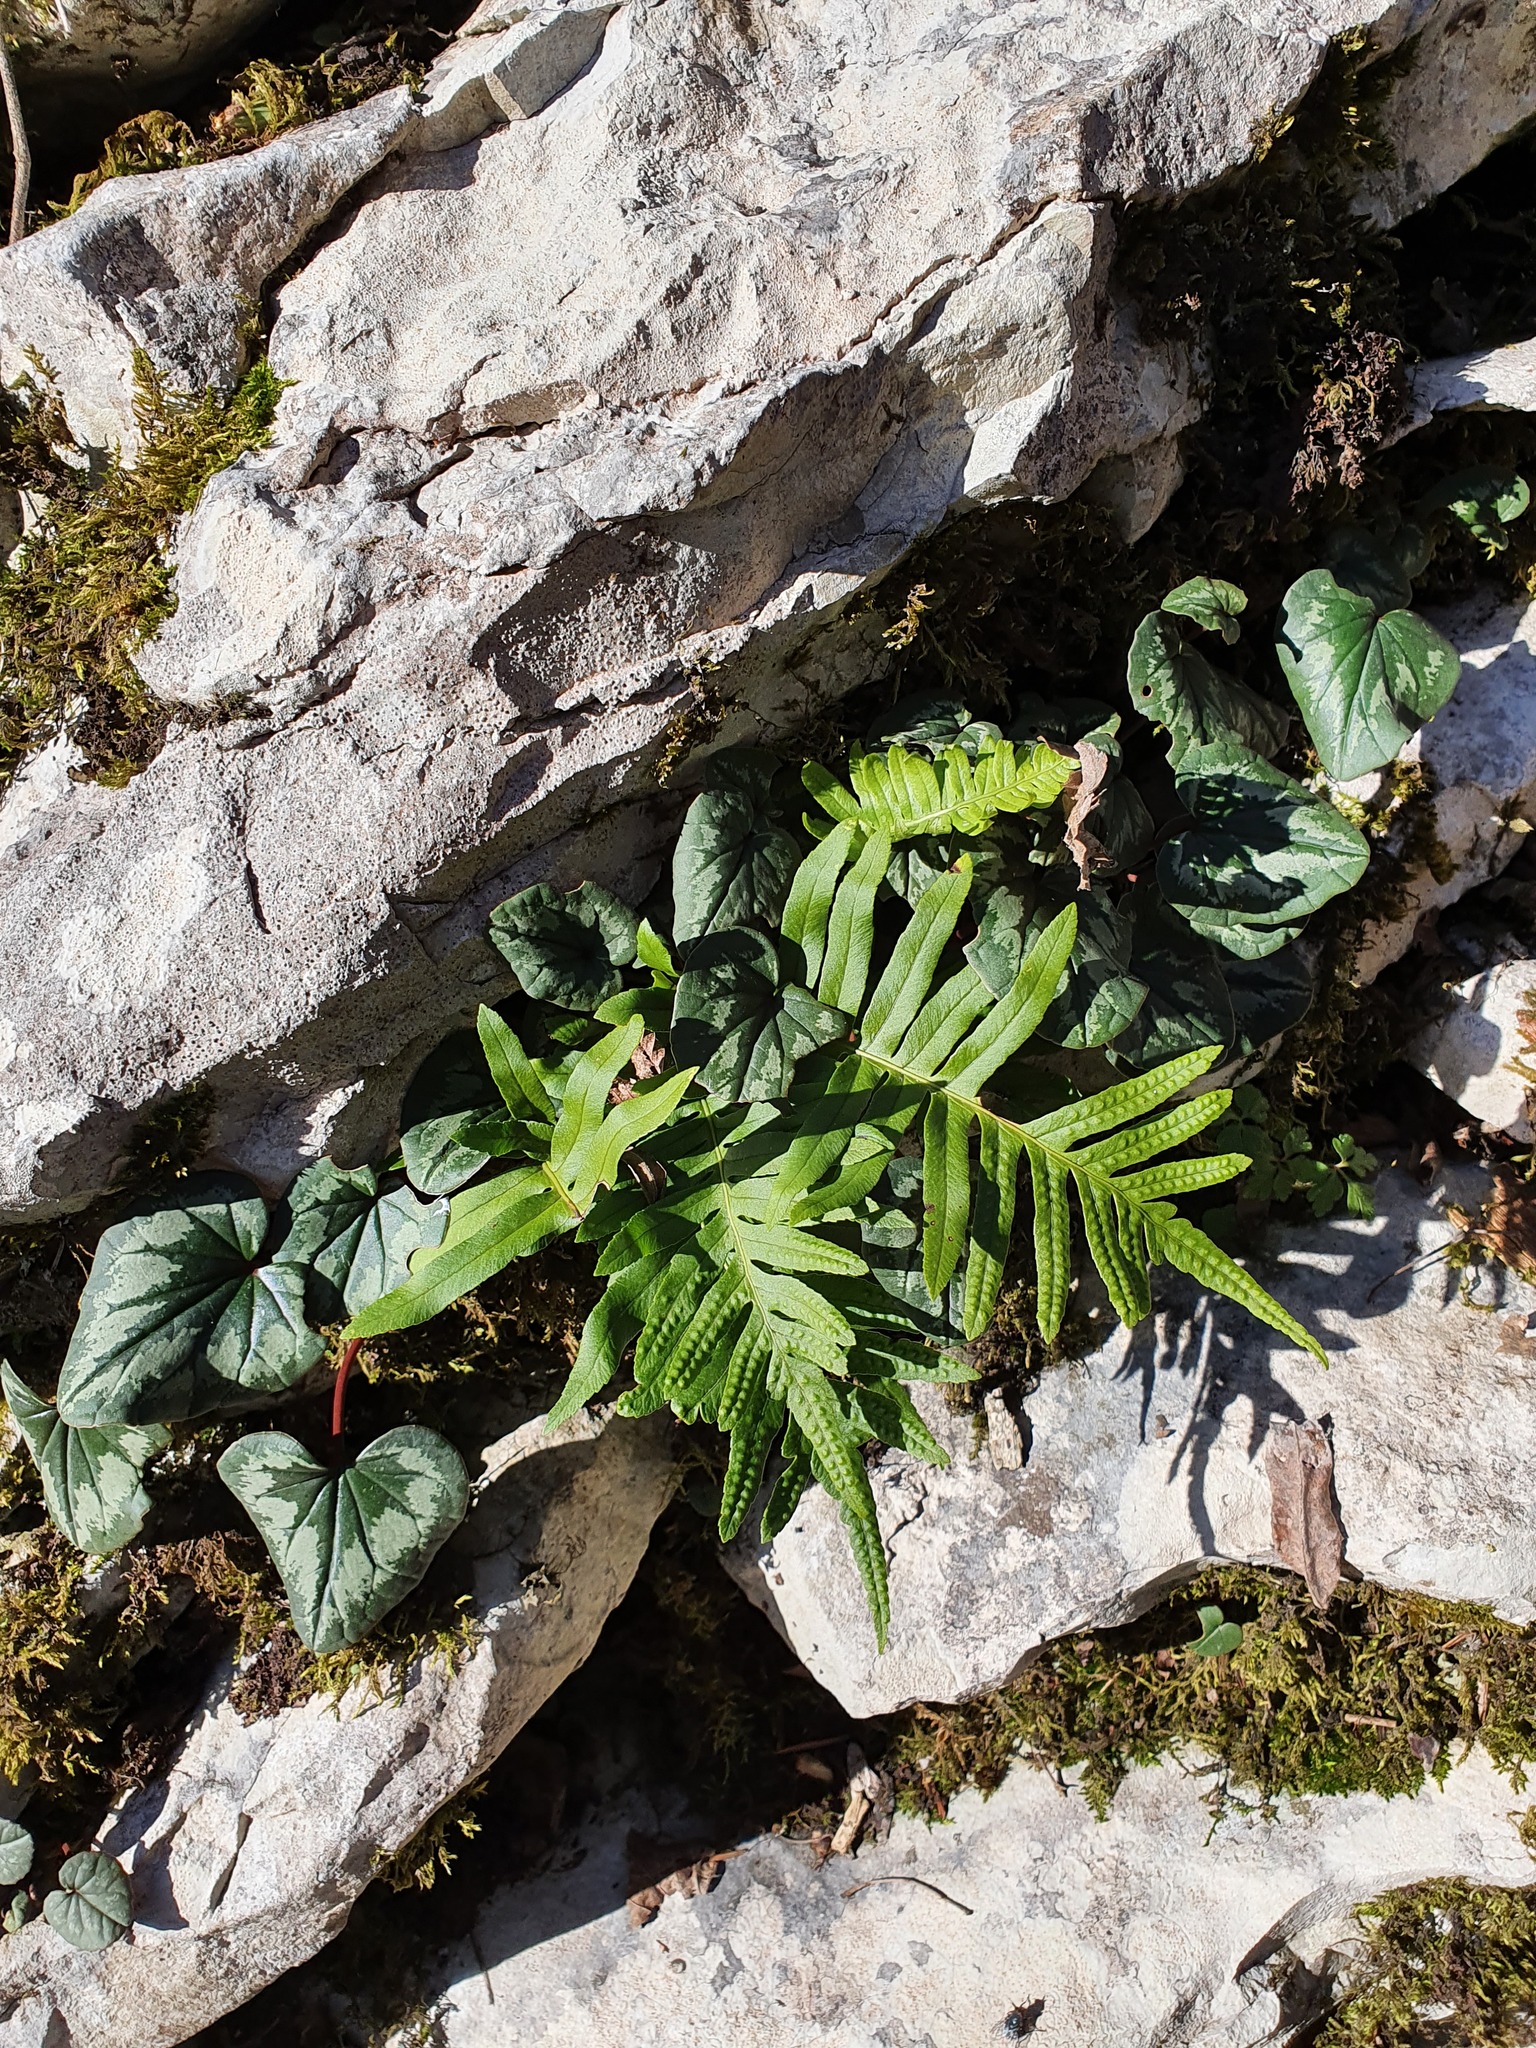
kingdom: Plantae
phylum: Tracheophyta
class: Polypodiopsida
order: Polypodiales
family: Polypodiaceae
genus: Polypodium
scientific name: Polypodium cambricum
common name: Southern polypody
